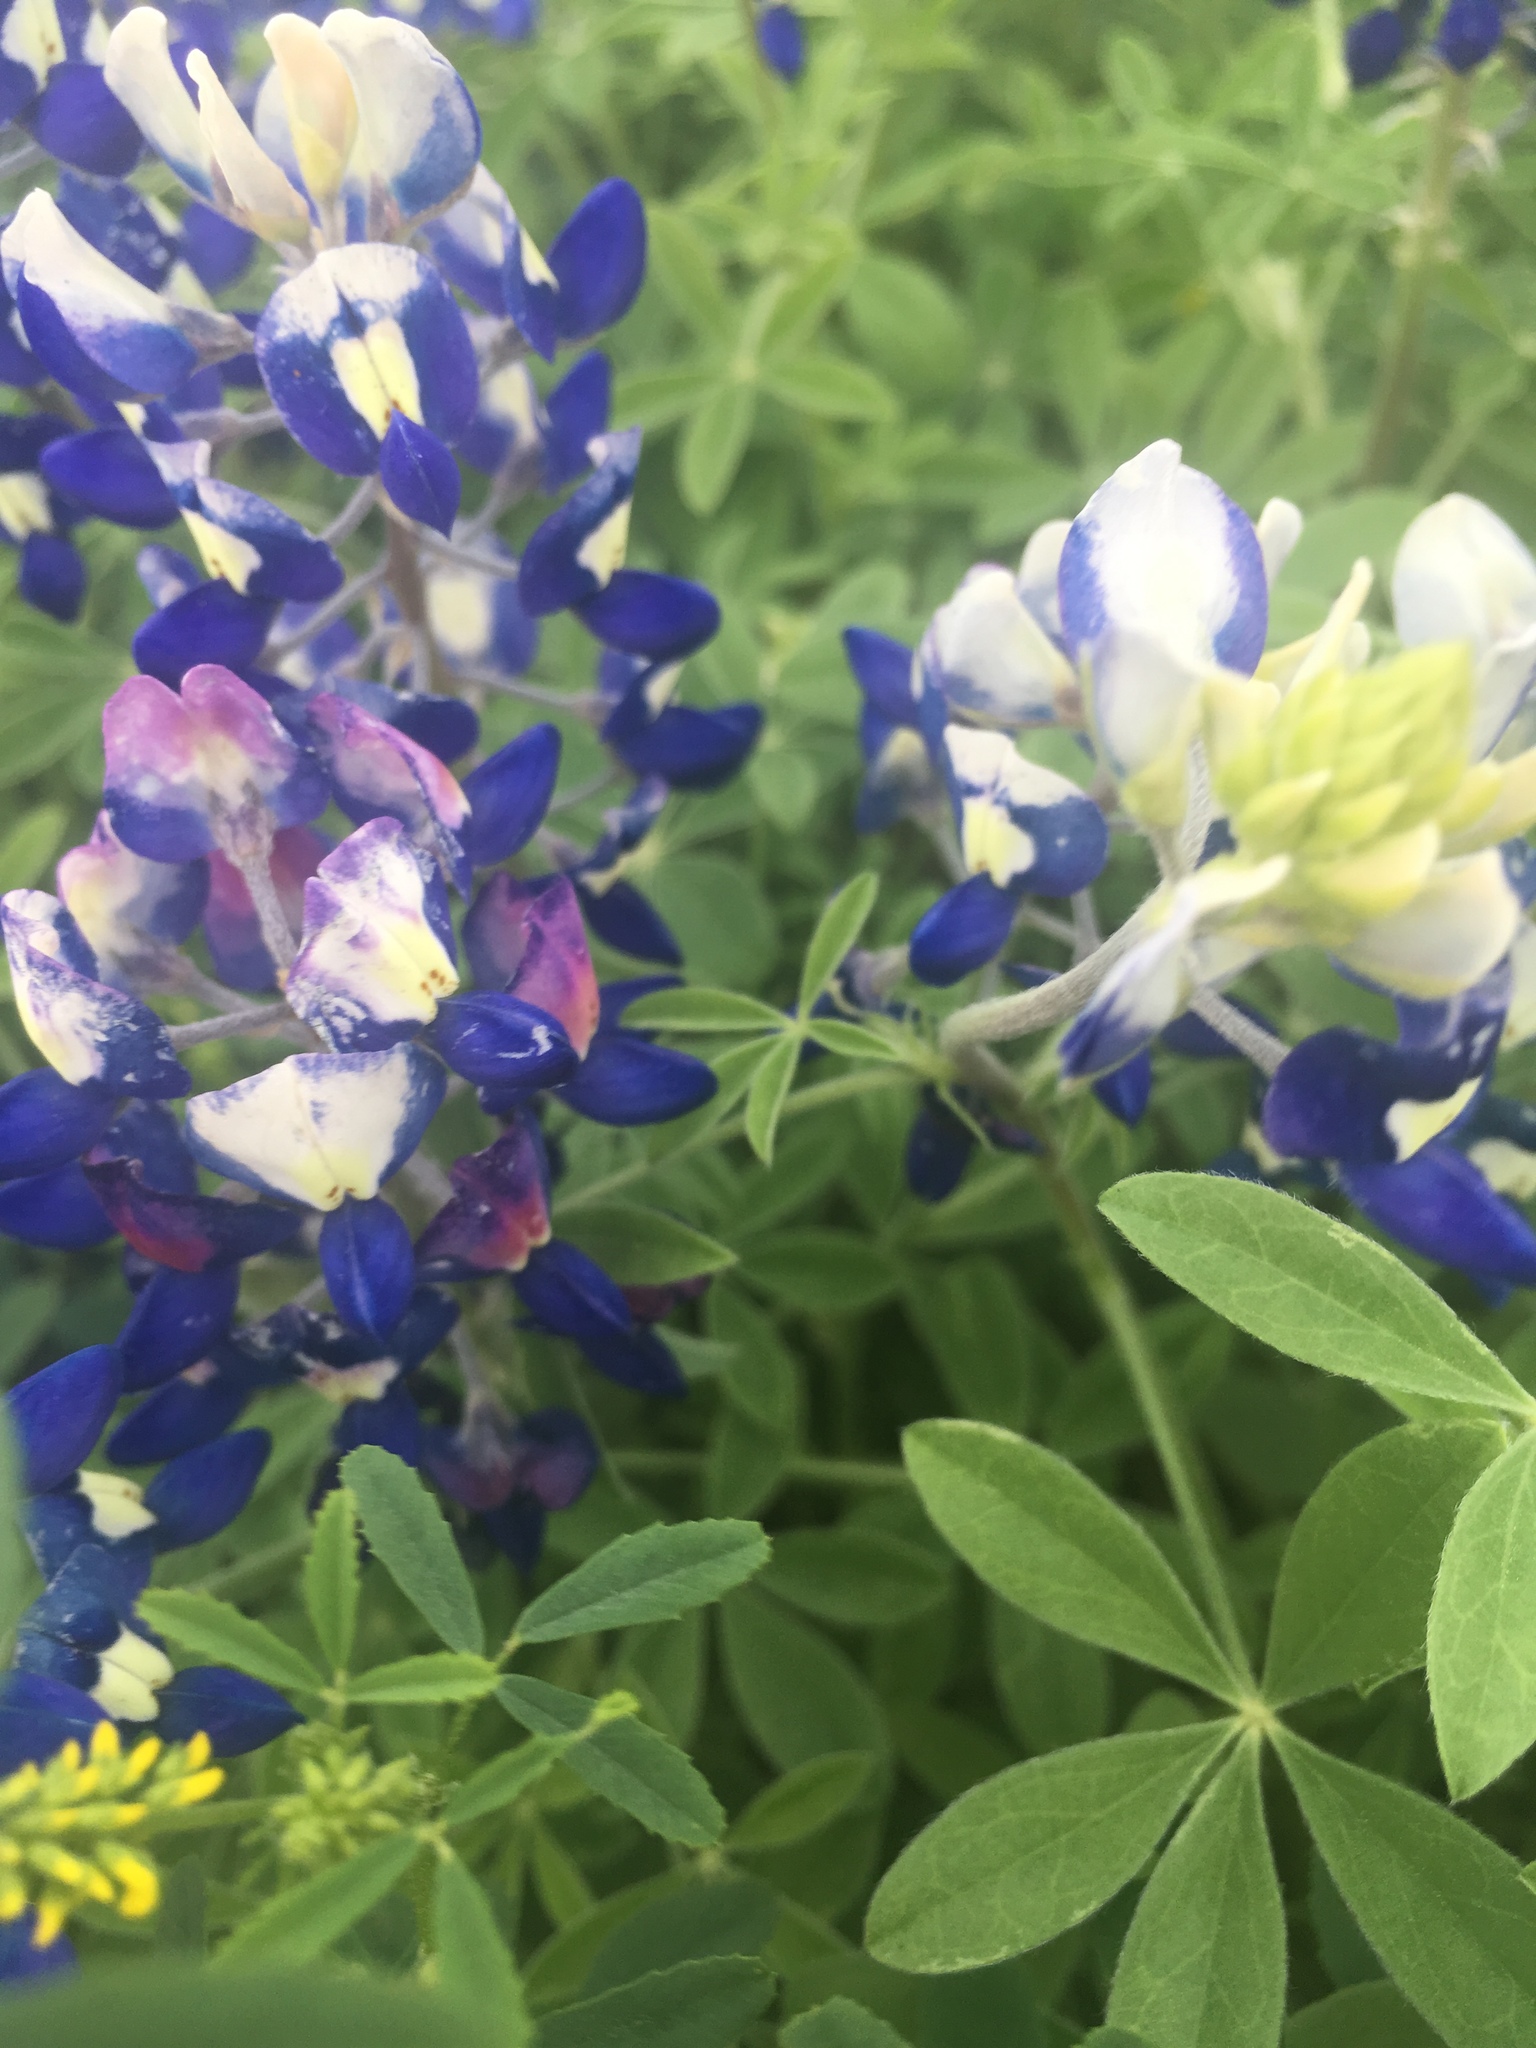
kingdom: Plantae
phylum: Tracheophyta
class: Magnoliopsida
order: Fabales
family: Fabaceae
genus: Lupinus
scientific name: Lupinus texensis
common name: Texas bluebonnet
